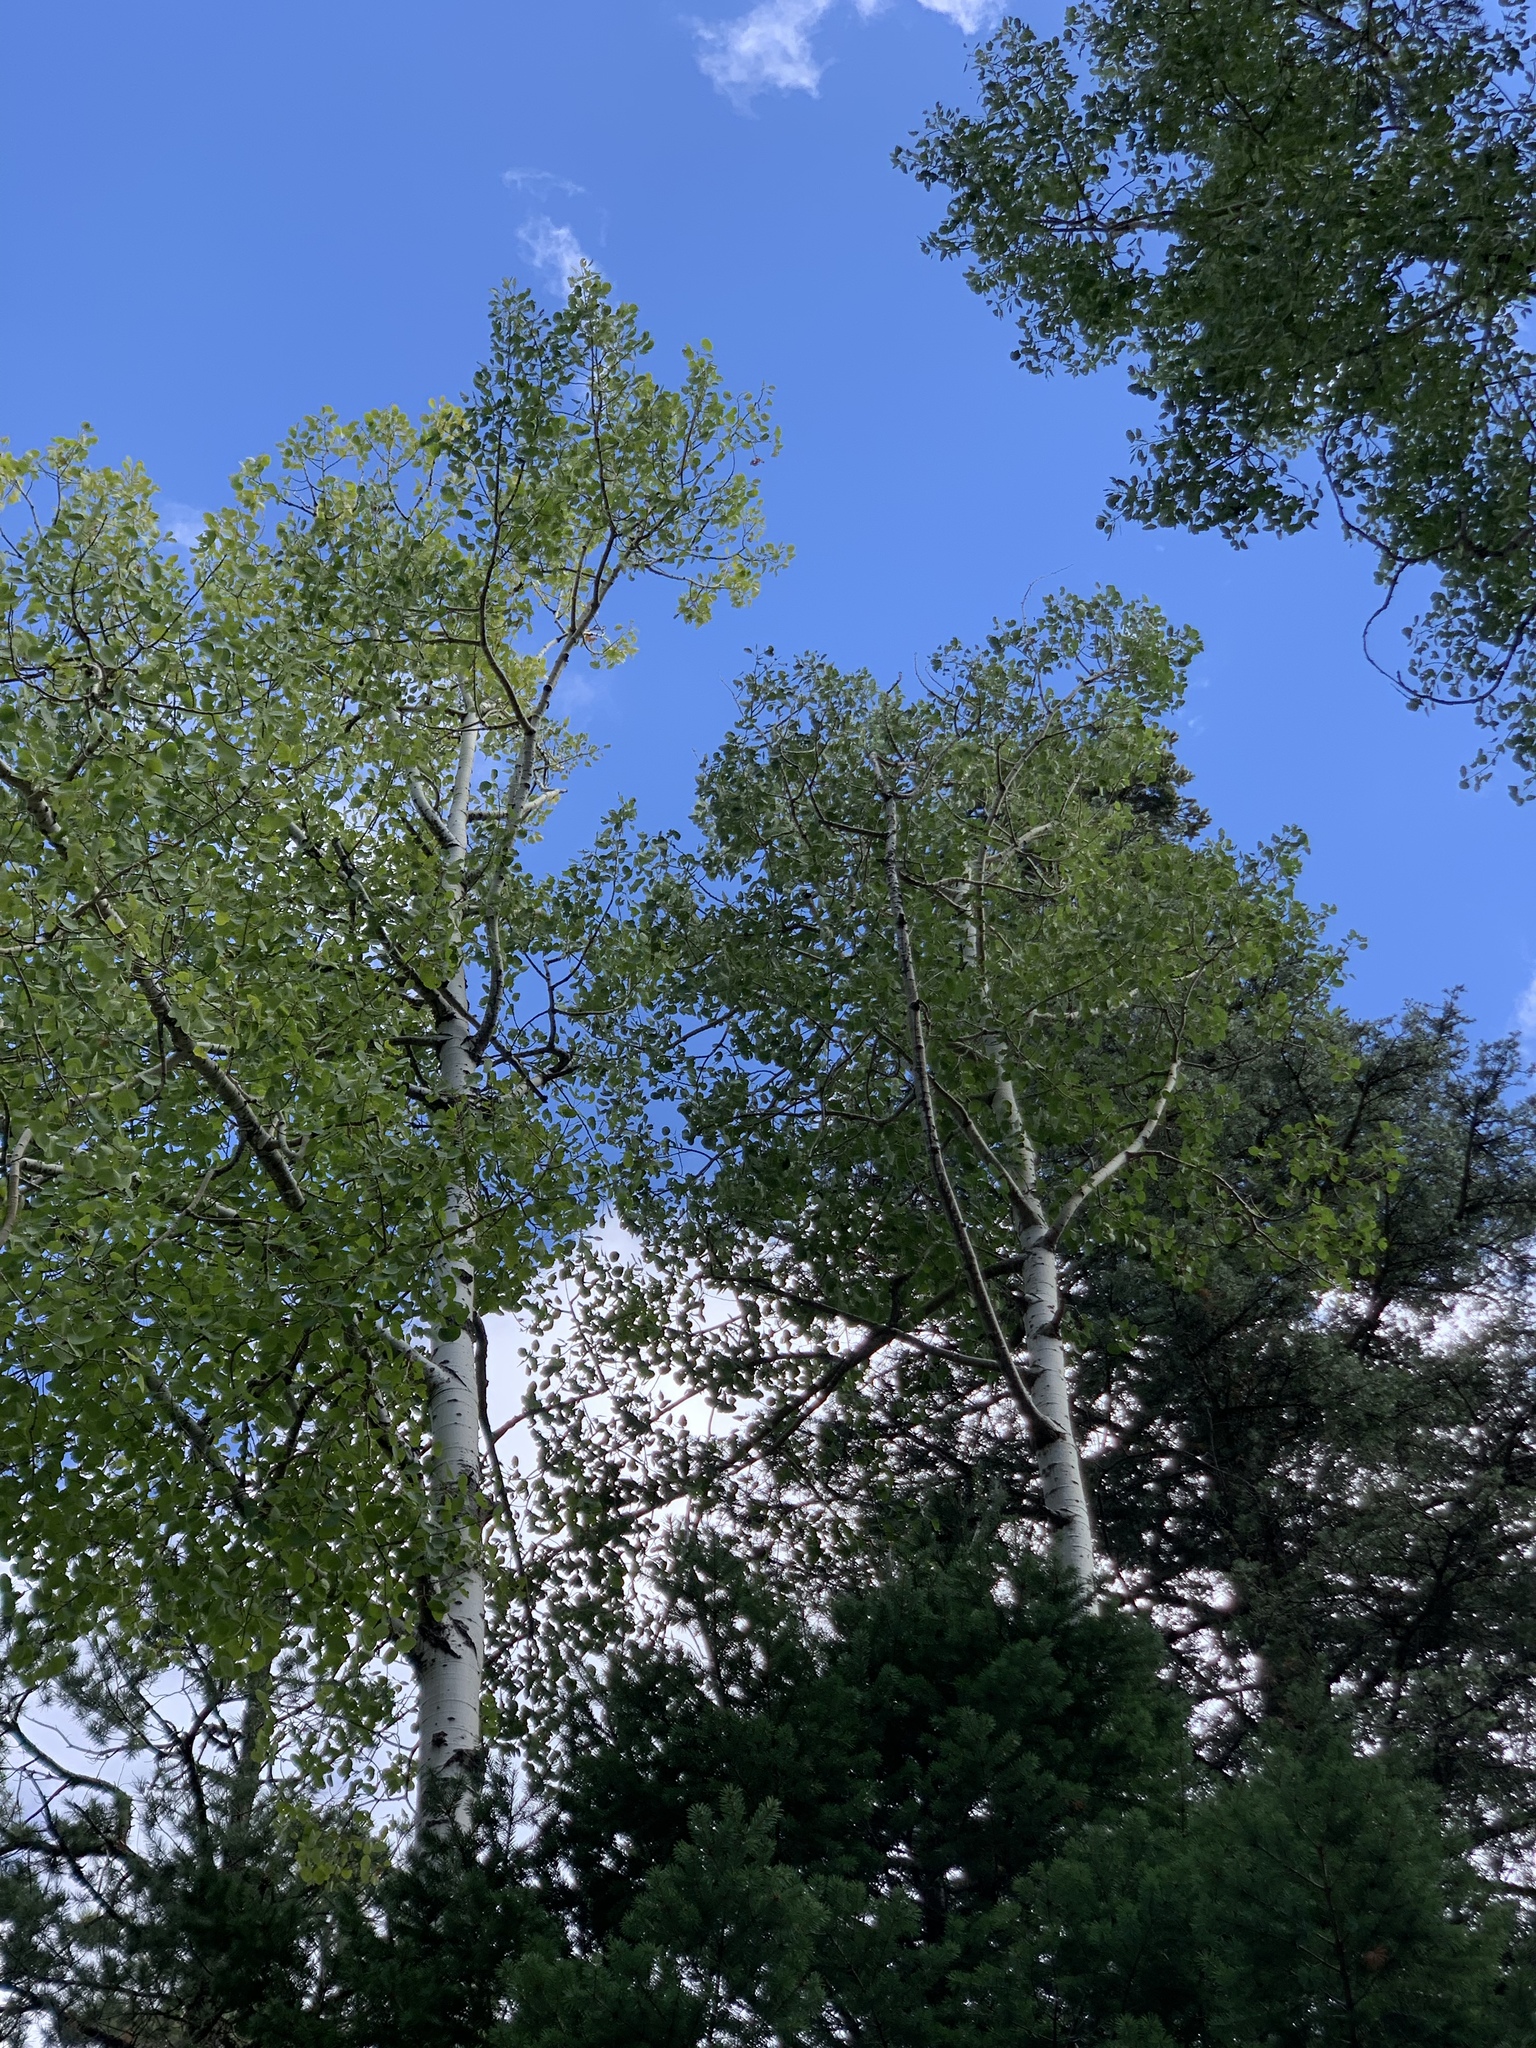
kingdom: Plantae
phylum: Tracheophyta
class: Magnoliopsida
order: Malpighiales
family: Salicaceae
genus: Populus
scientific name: Populus tremuloides
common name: Quaking aspen
